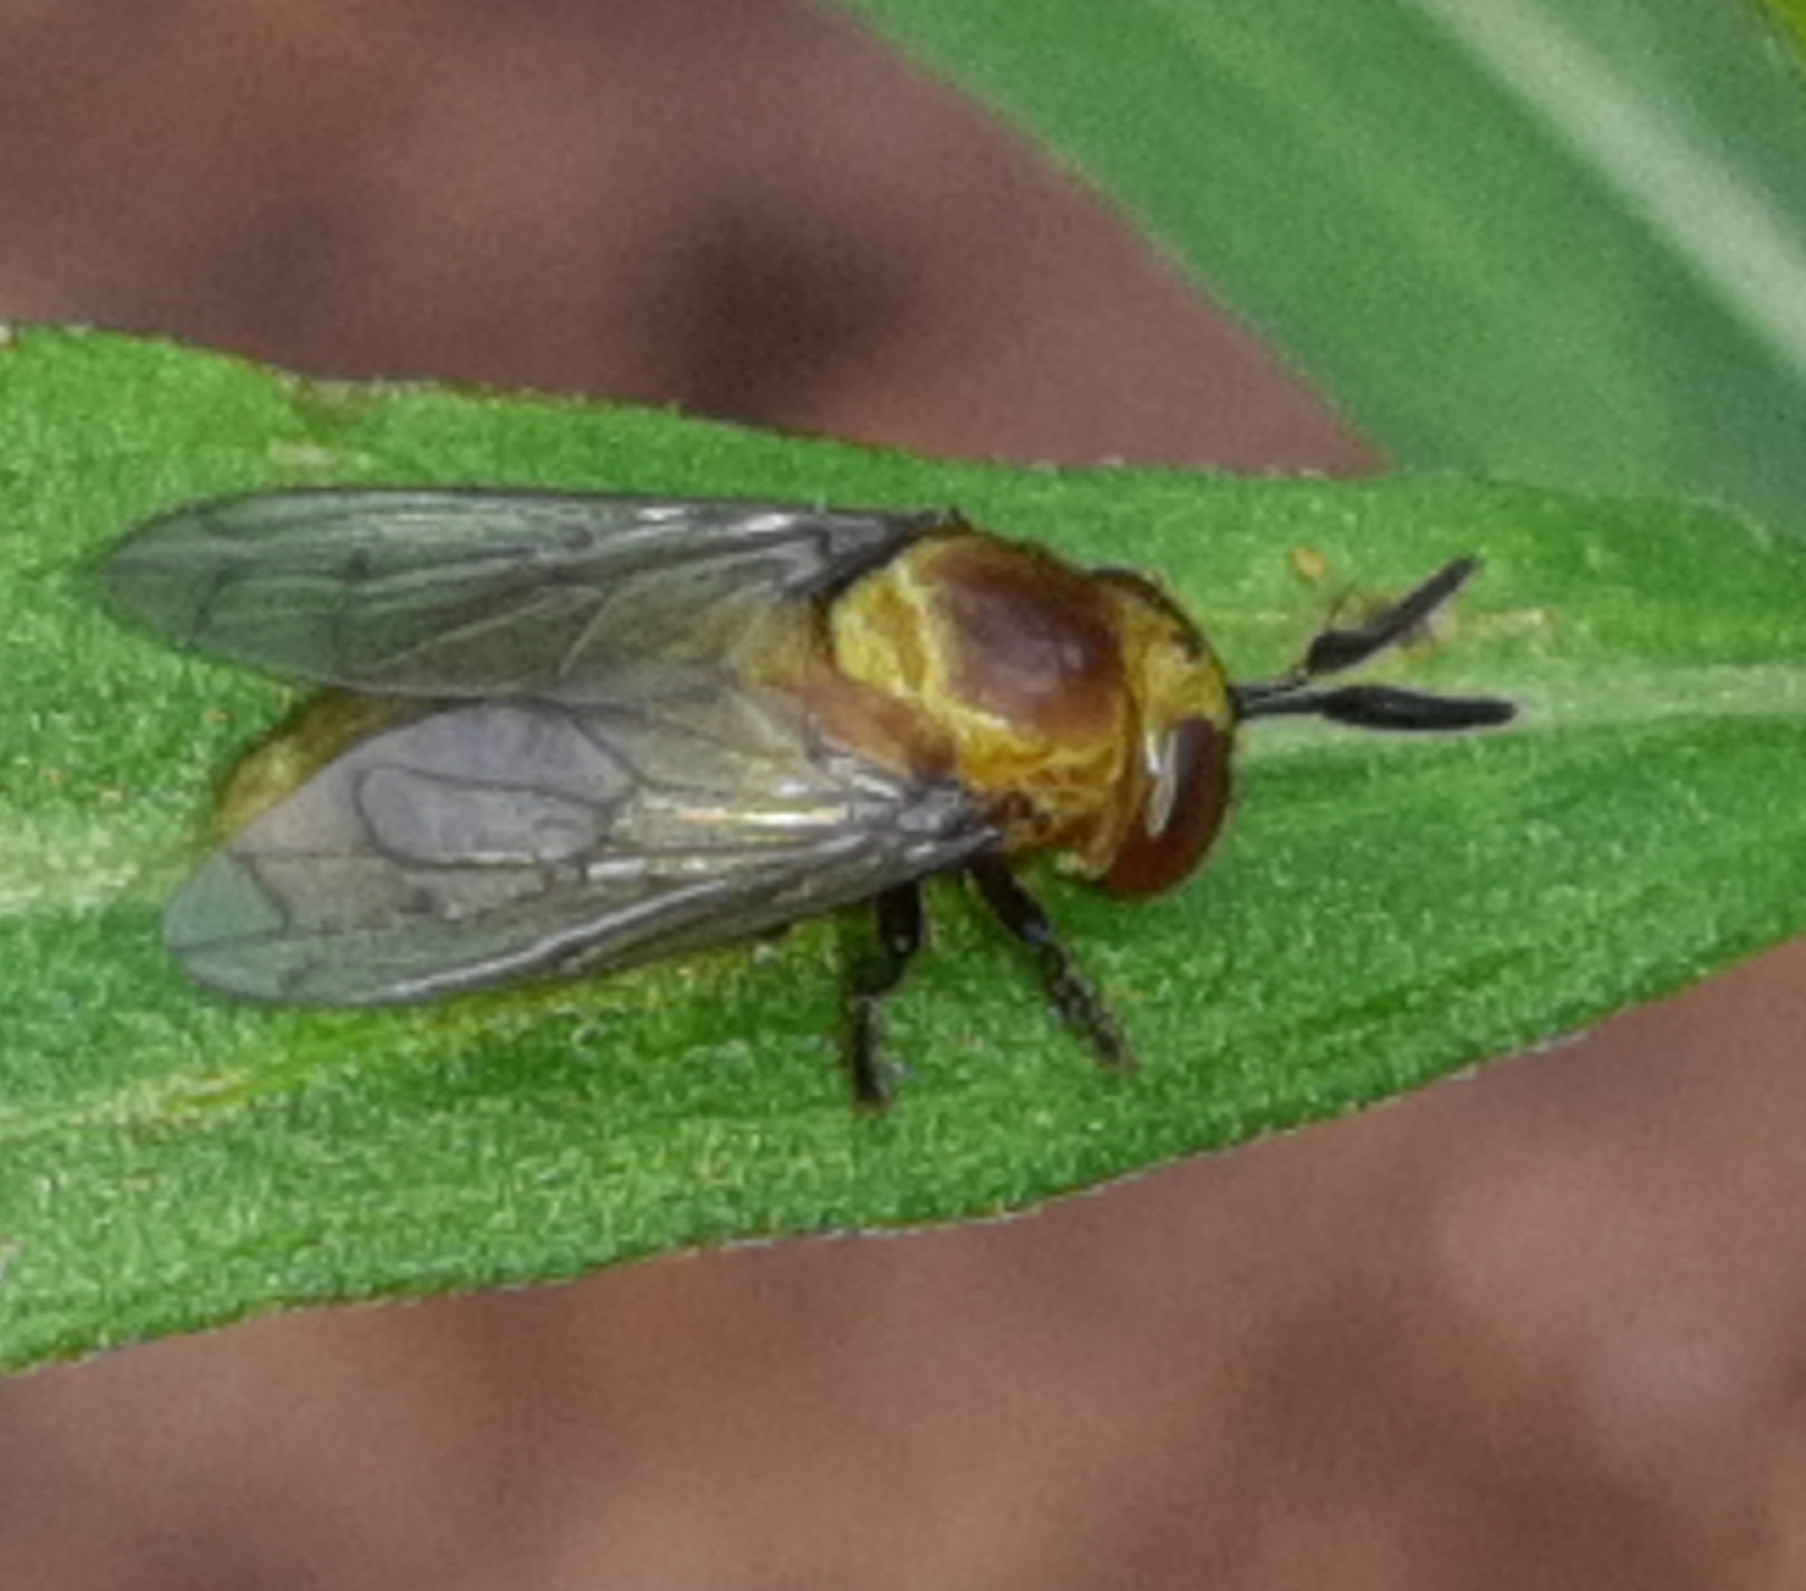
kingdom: Animalia
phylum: Arthropoda
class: Insecta
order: Diptera
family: Syrphidae
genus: Menidon
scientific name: Menidon falcatus
